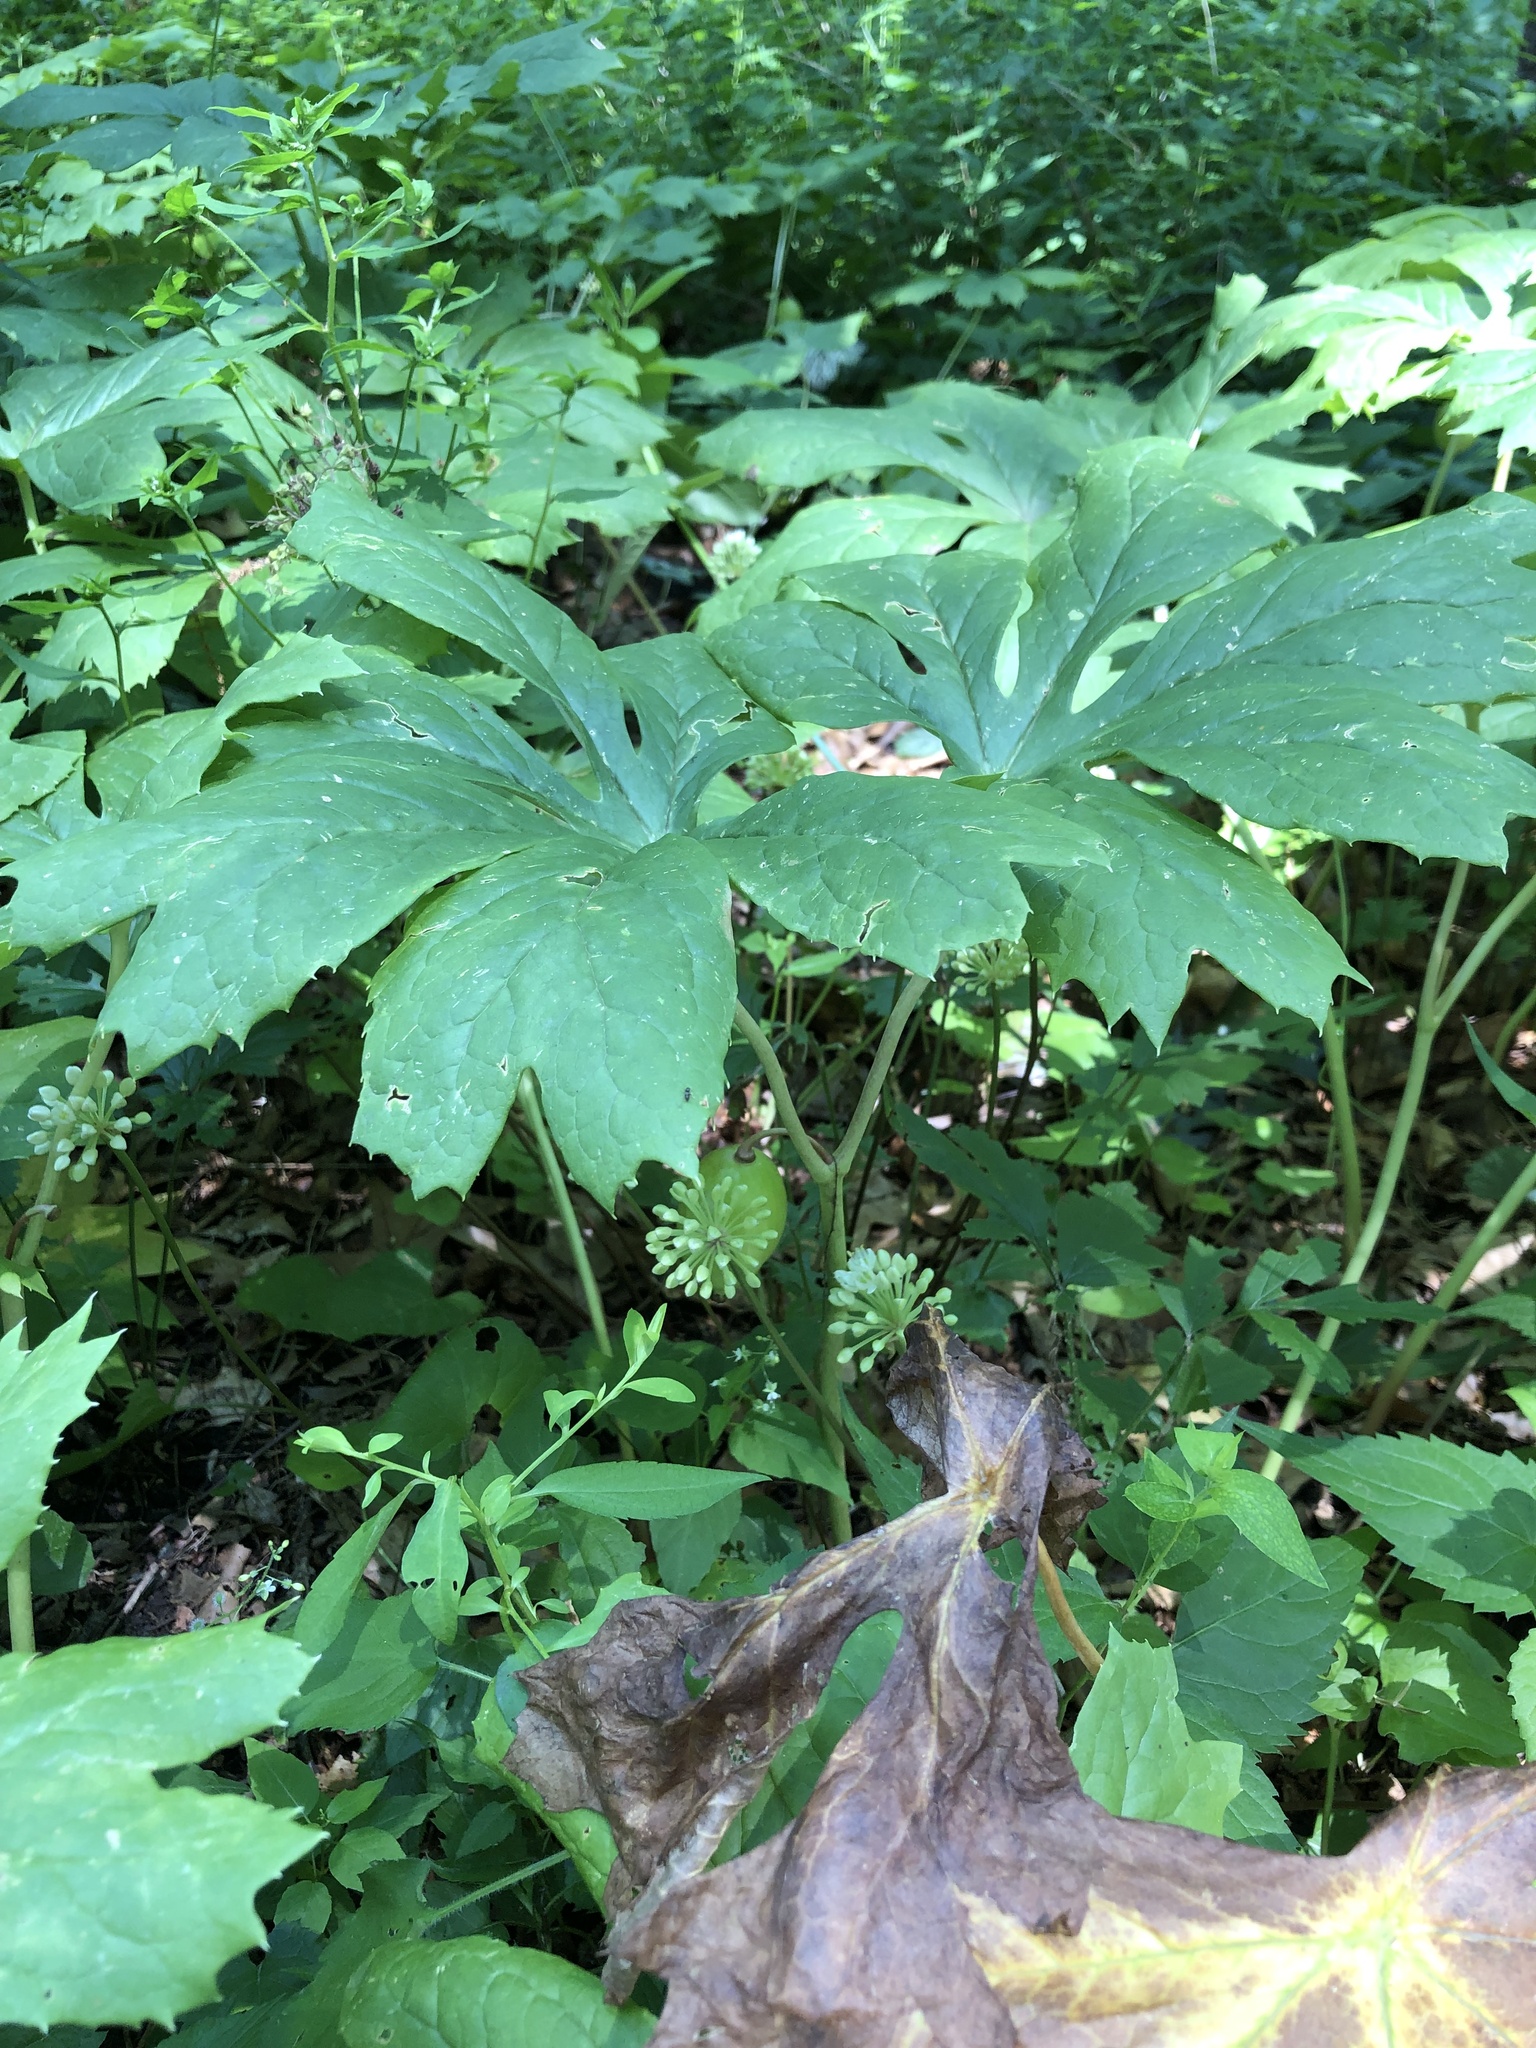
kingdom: Plantae
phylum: Tracheophyta
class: Magnoliopsida
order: Ranunculales
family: Berberidaceae
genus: Podophyllum
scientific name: Podophyllum peltatum
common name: Wild mandrake
